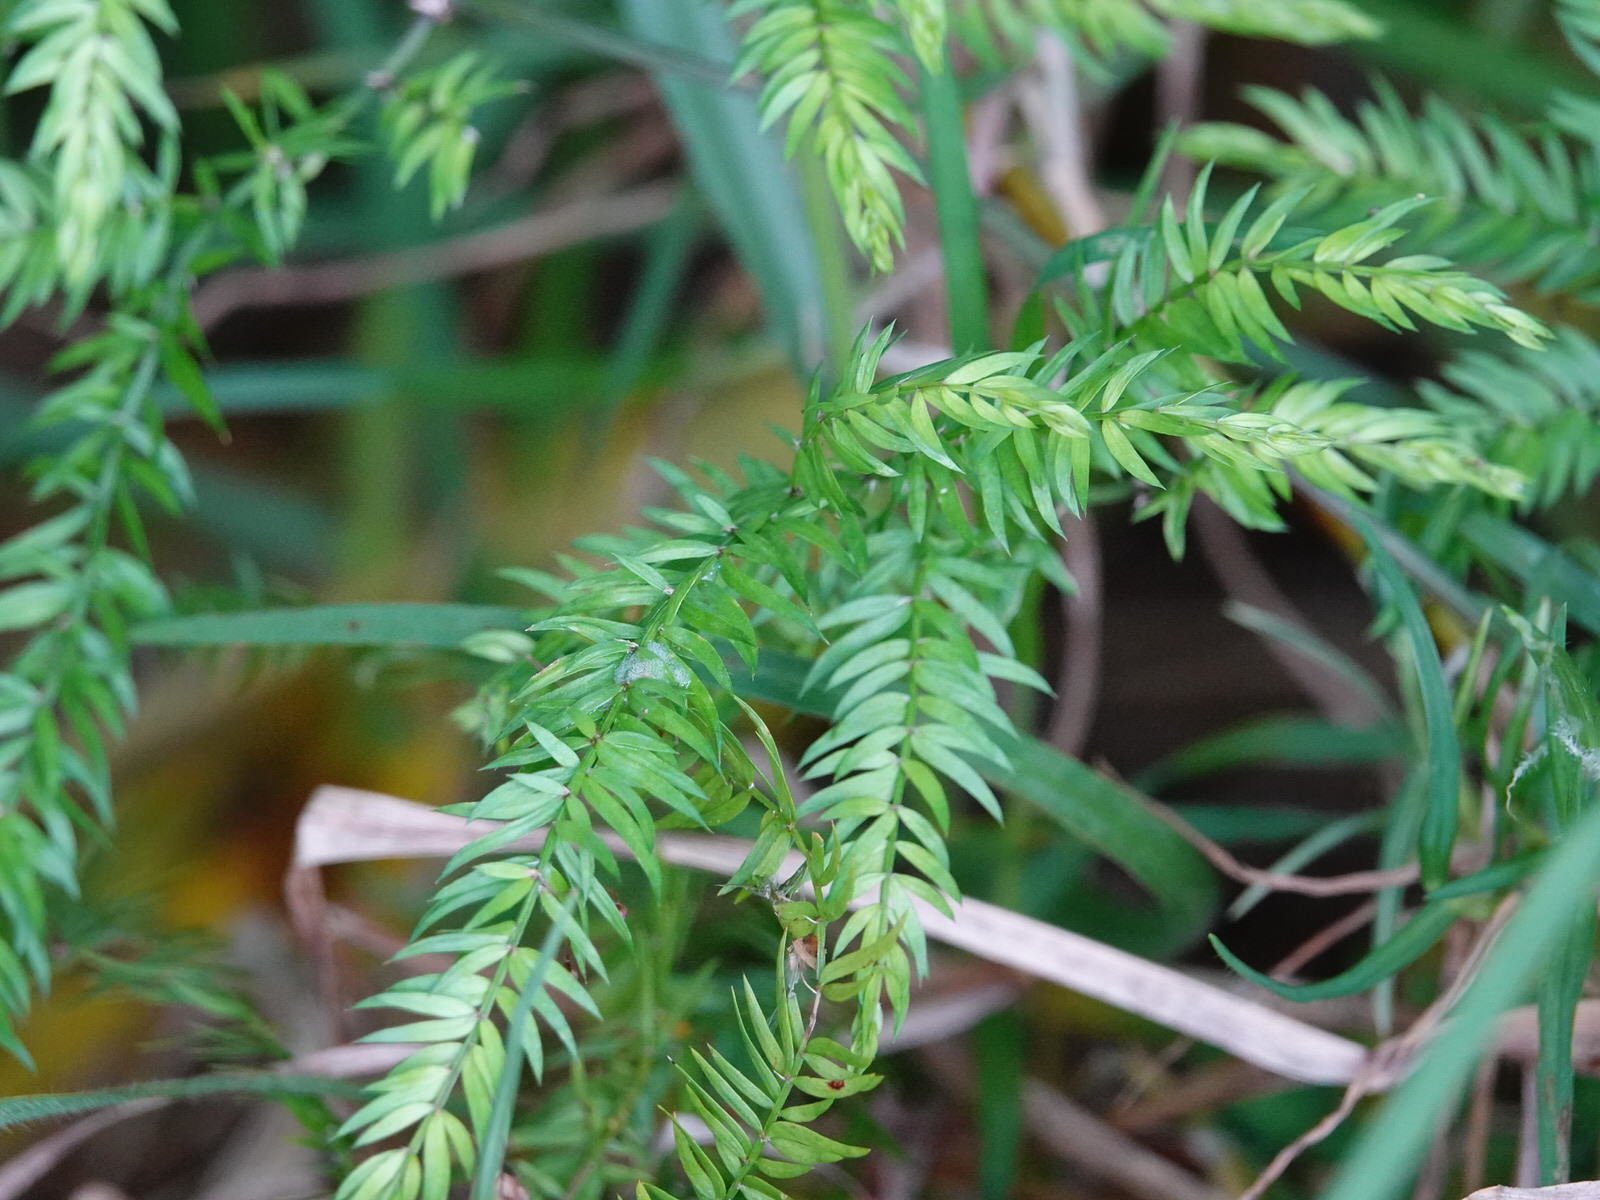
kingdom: Plantae
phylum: Tracheophyta
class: Liliopsida
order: Asparagales
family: Asparagaceae
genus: Asparagus
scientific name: Asparagus scandens
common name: Asparagus-fern
